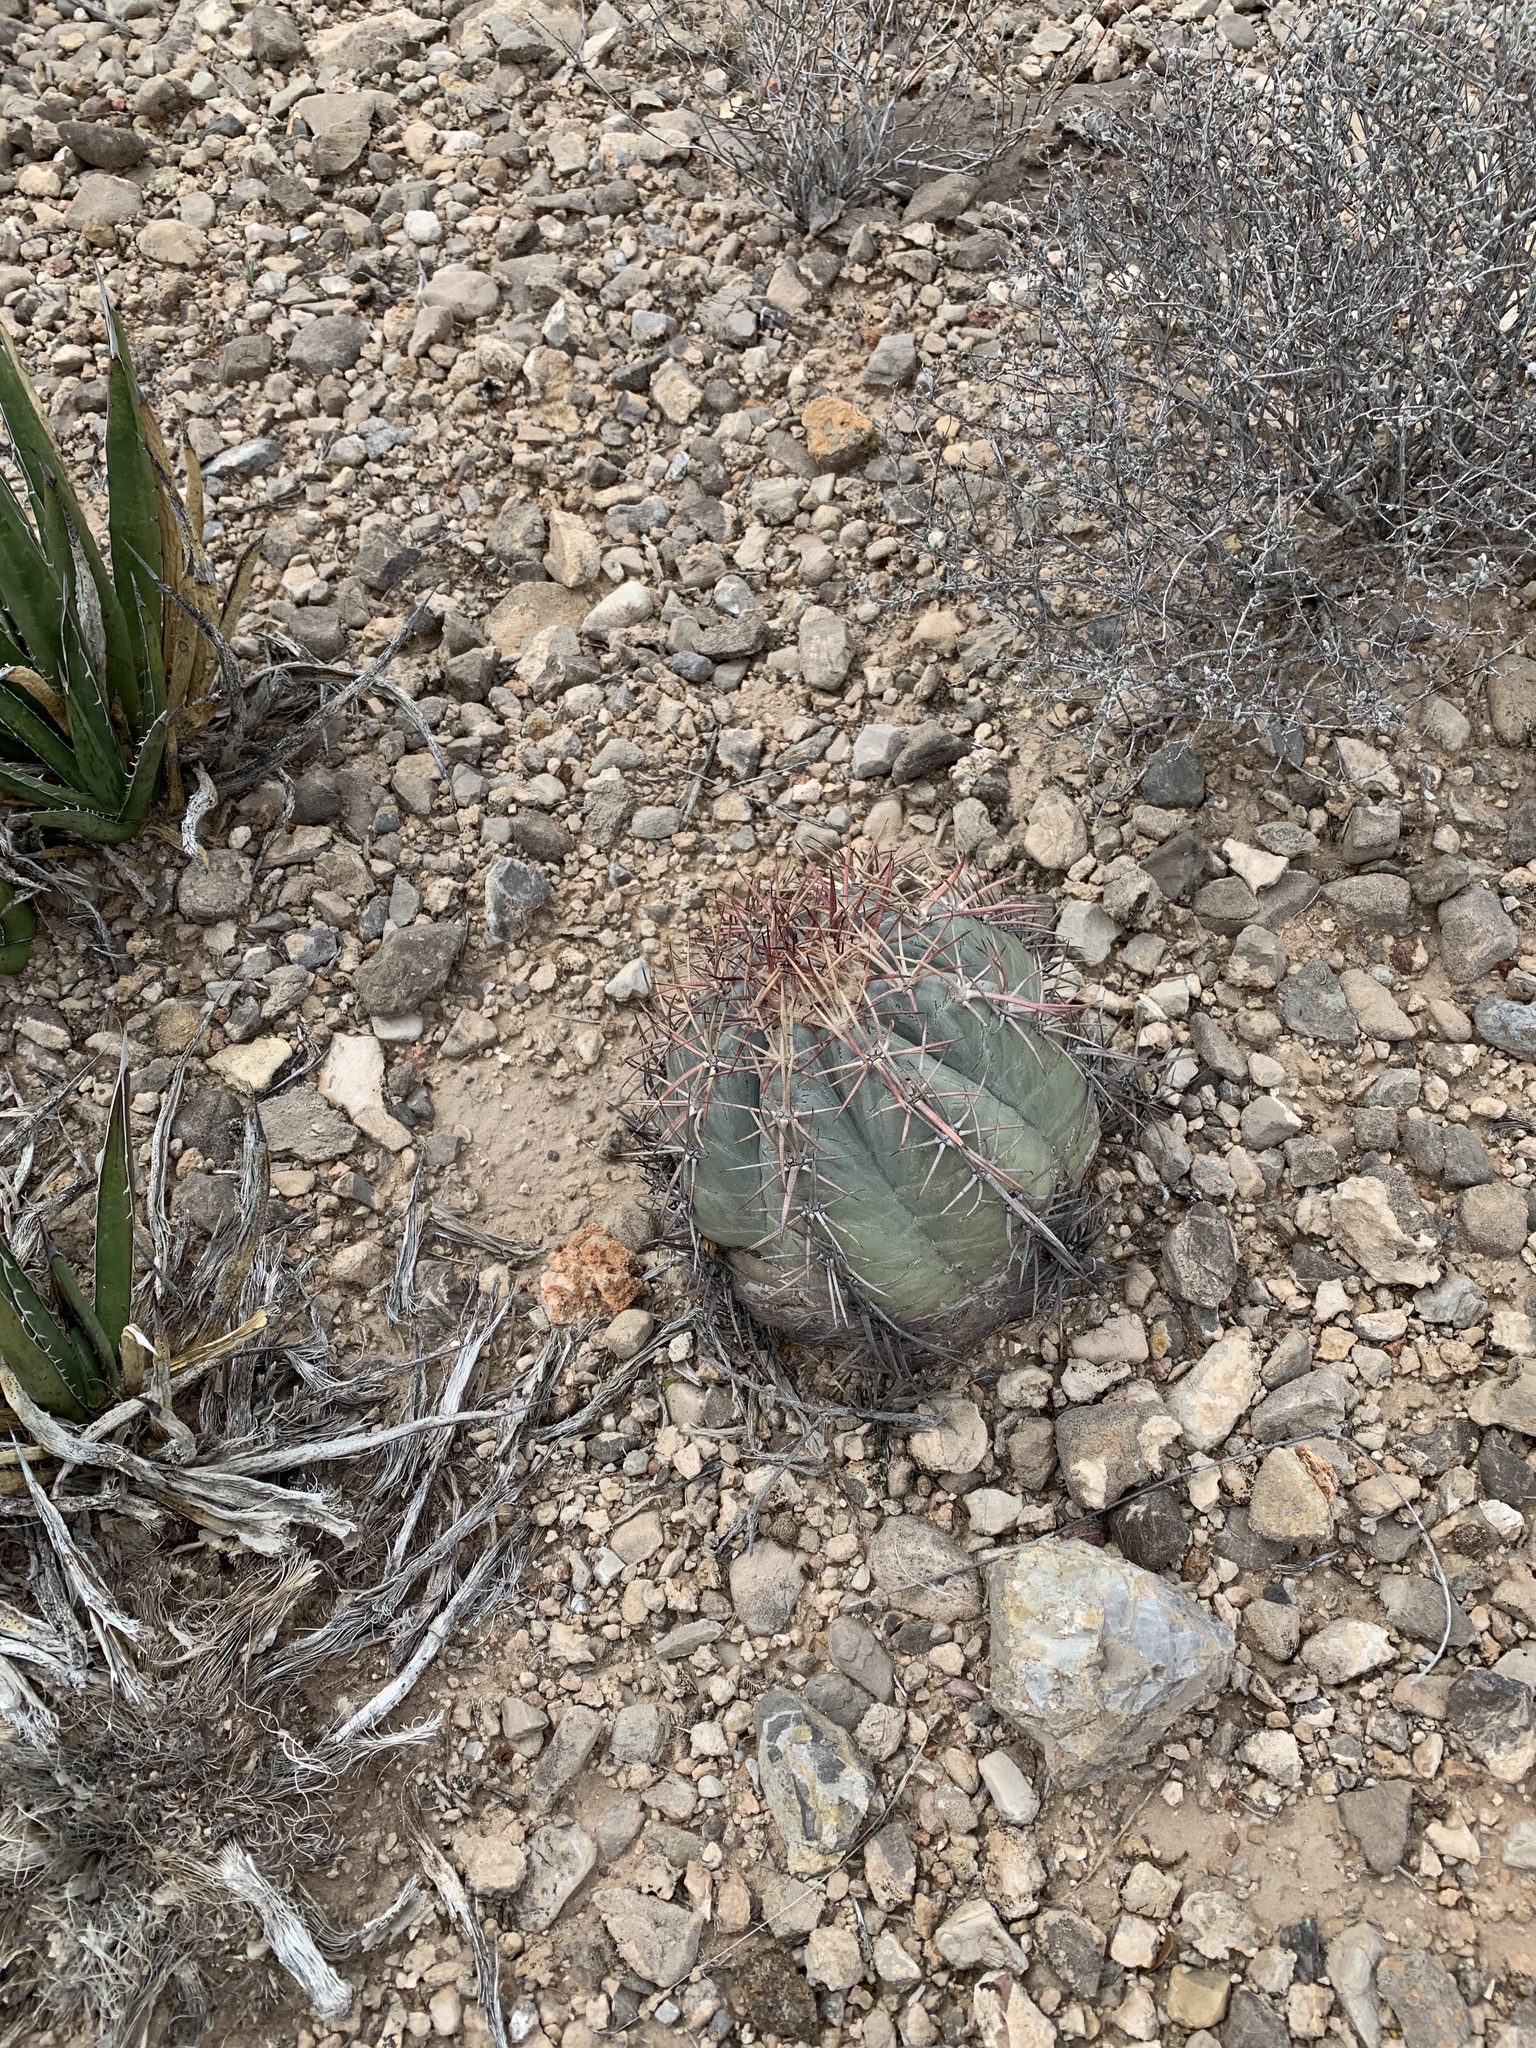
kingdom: Plantae
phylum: Tracheophyta
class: Magnoliopsida
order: Caryophyllales
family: Cactaceae
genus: Echinocactus
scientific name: Echinocactus horizonthalonius
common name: Devilshead
